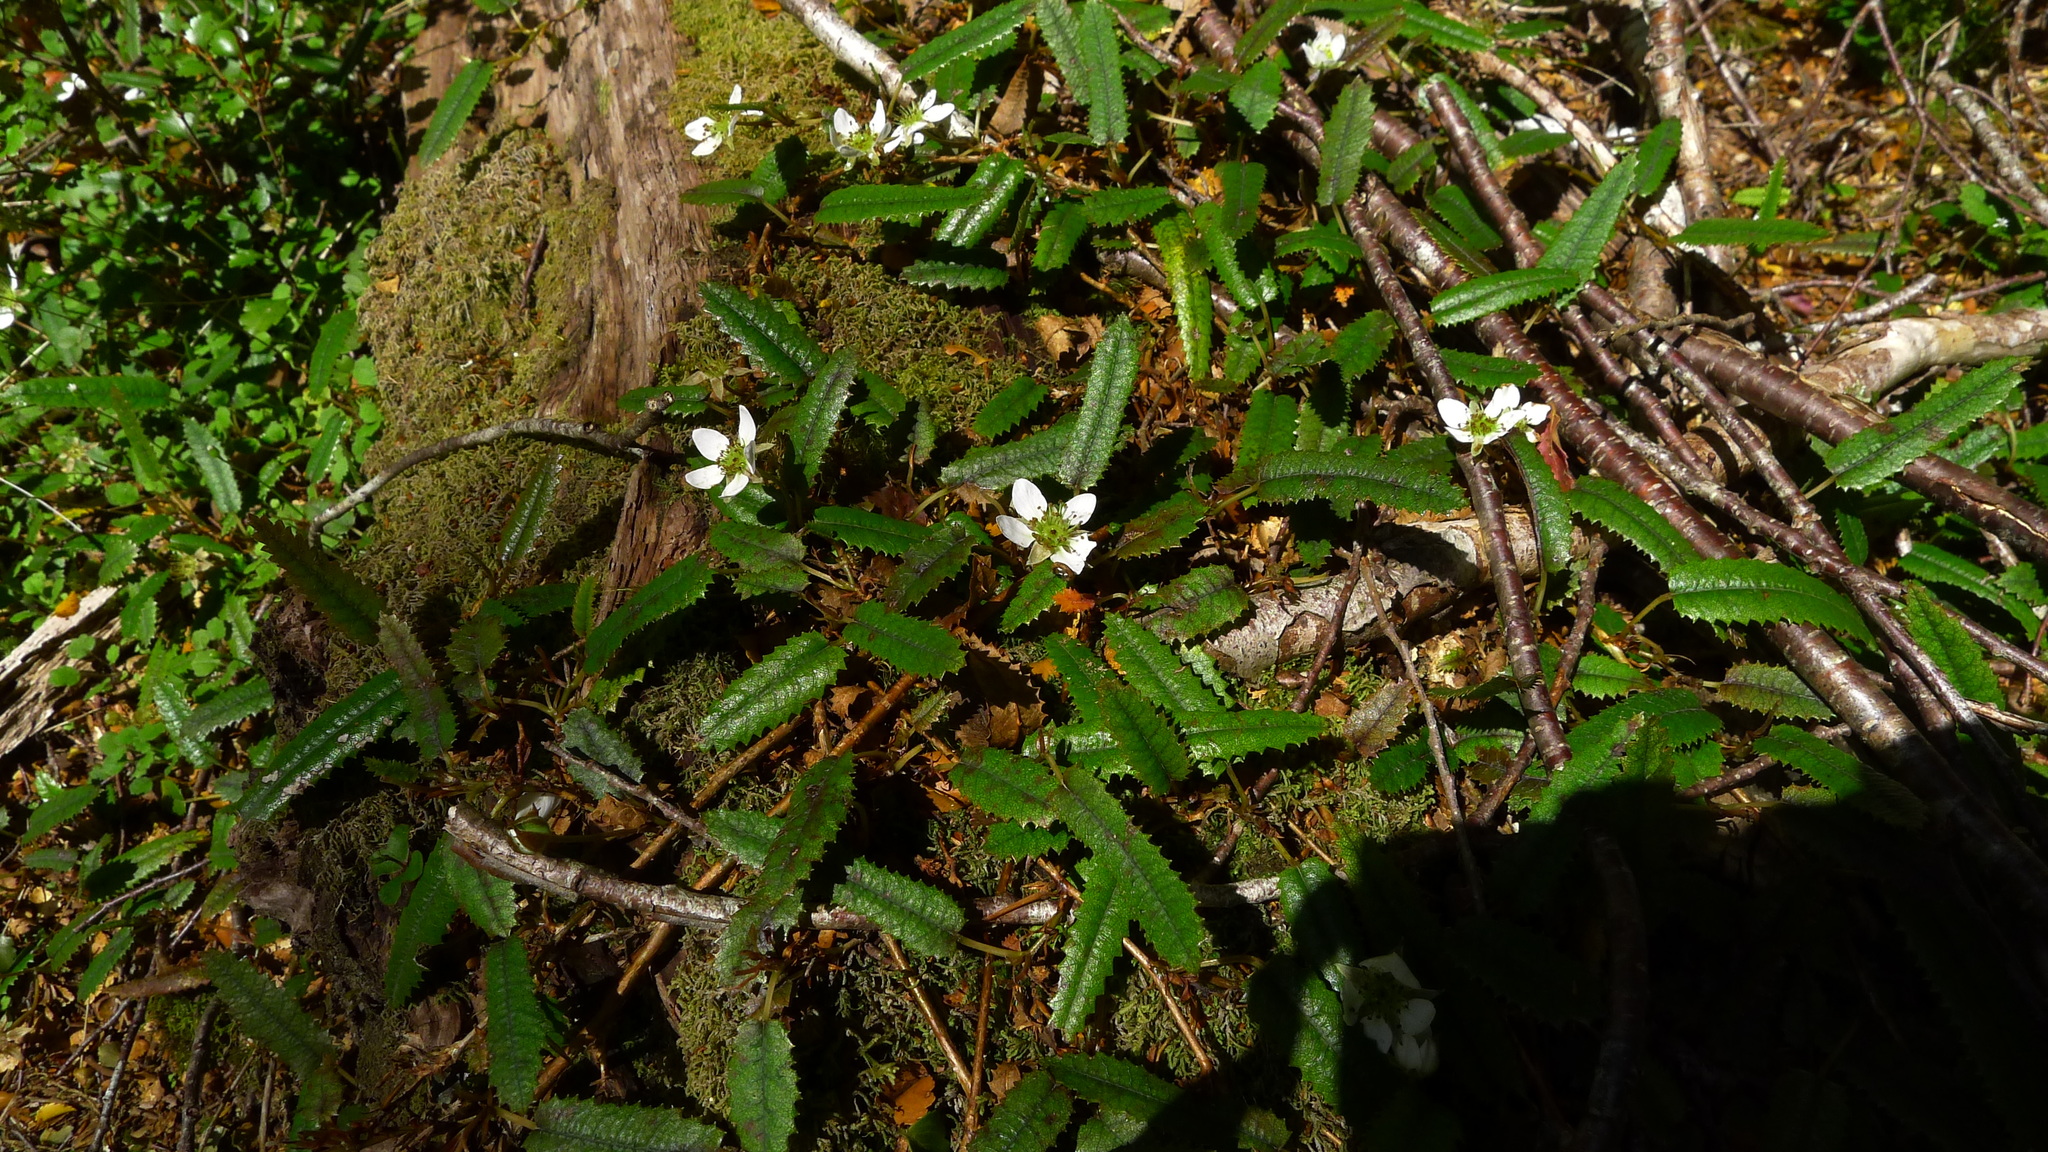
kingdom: Plantae
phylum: Tracheophyta
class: Magnoliopsida
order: Rosales
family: Rosaceae
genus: Rubus
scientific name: Rubus parvus
